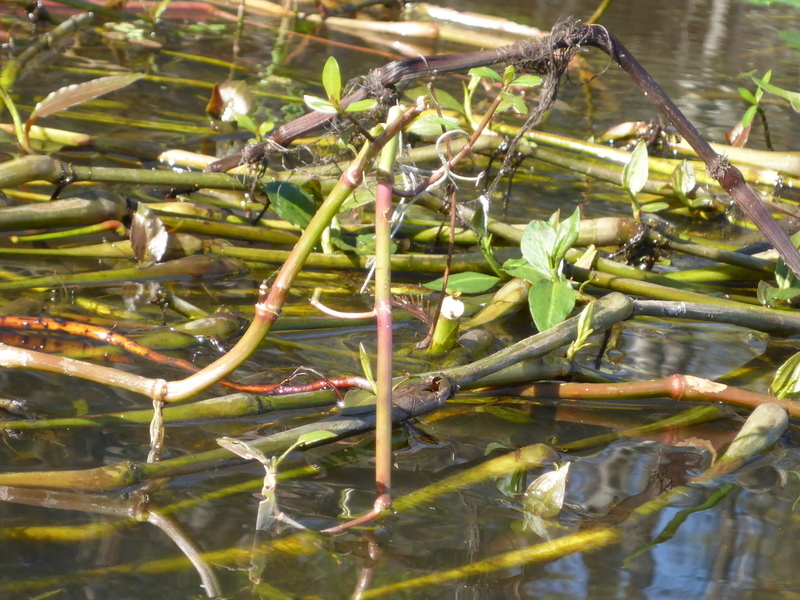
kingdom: Plantae
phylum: Tracheophyta
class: Magnoliopsida
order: Caryophyllales
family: Amaranthaceae
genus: Alternanthera
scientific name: Alternanthera philoxeroides
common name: Alligatorweed
